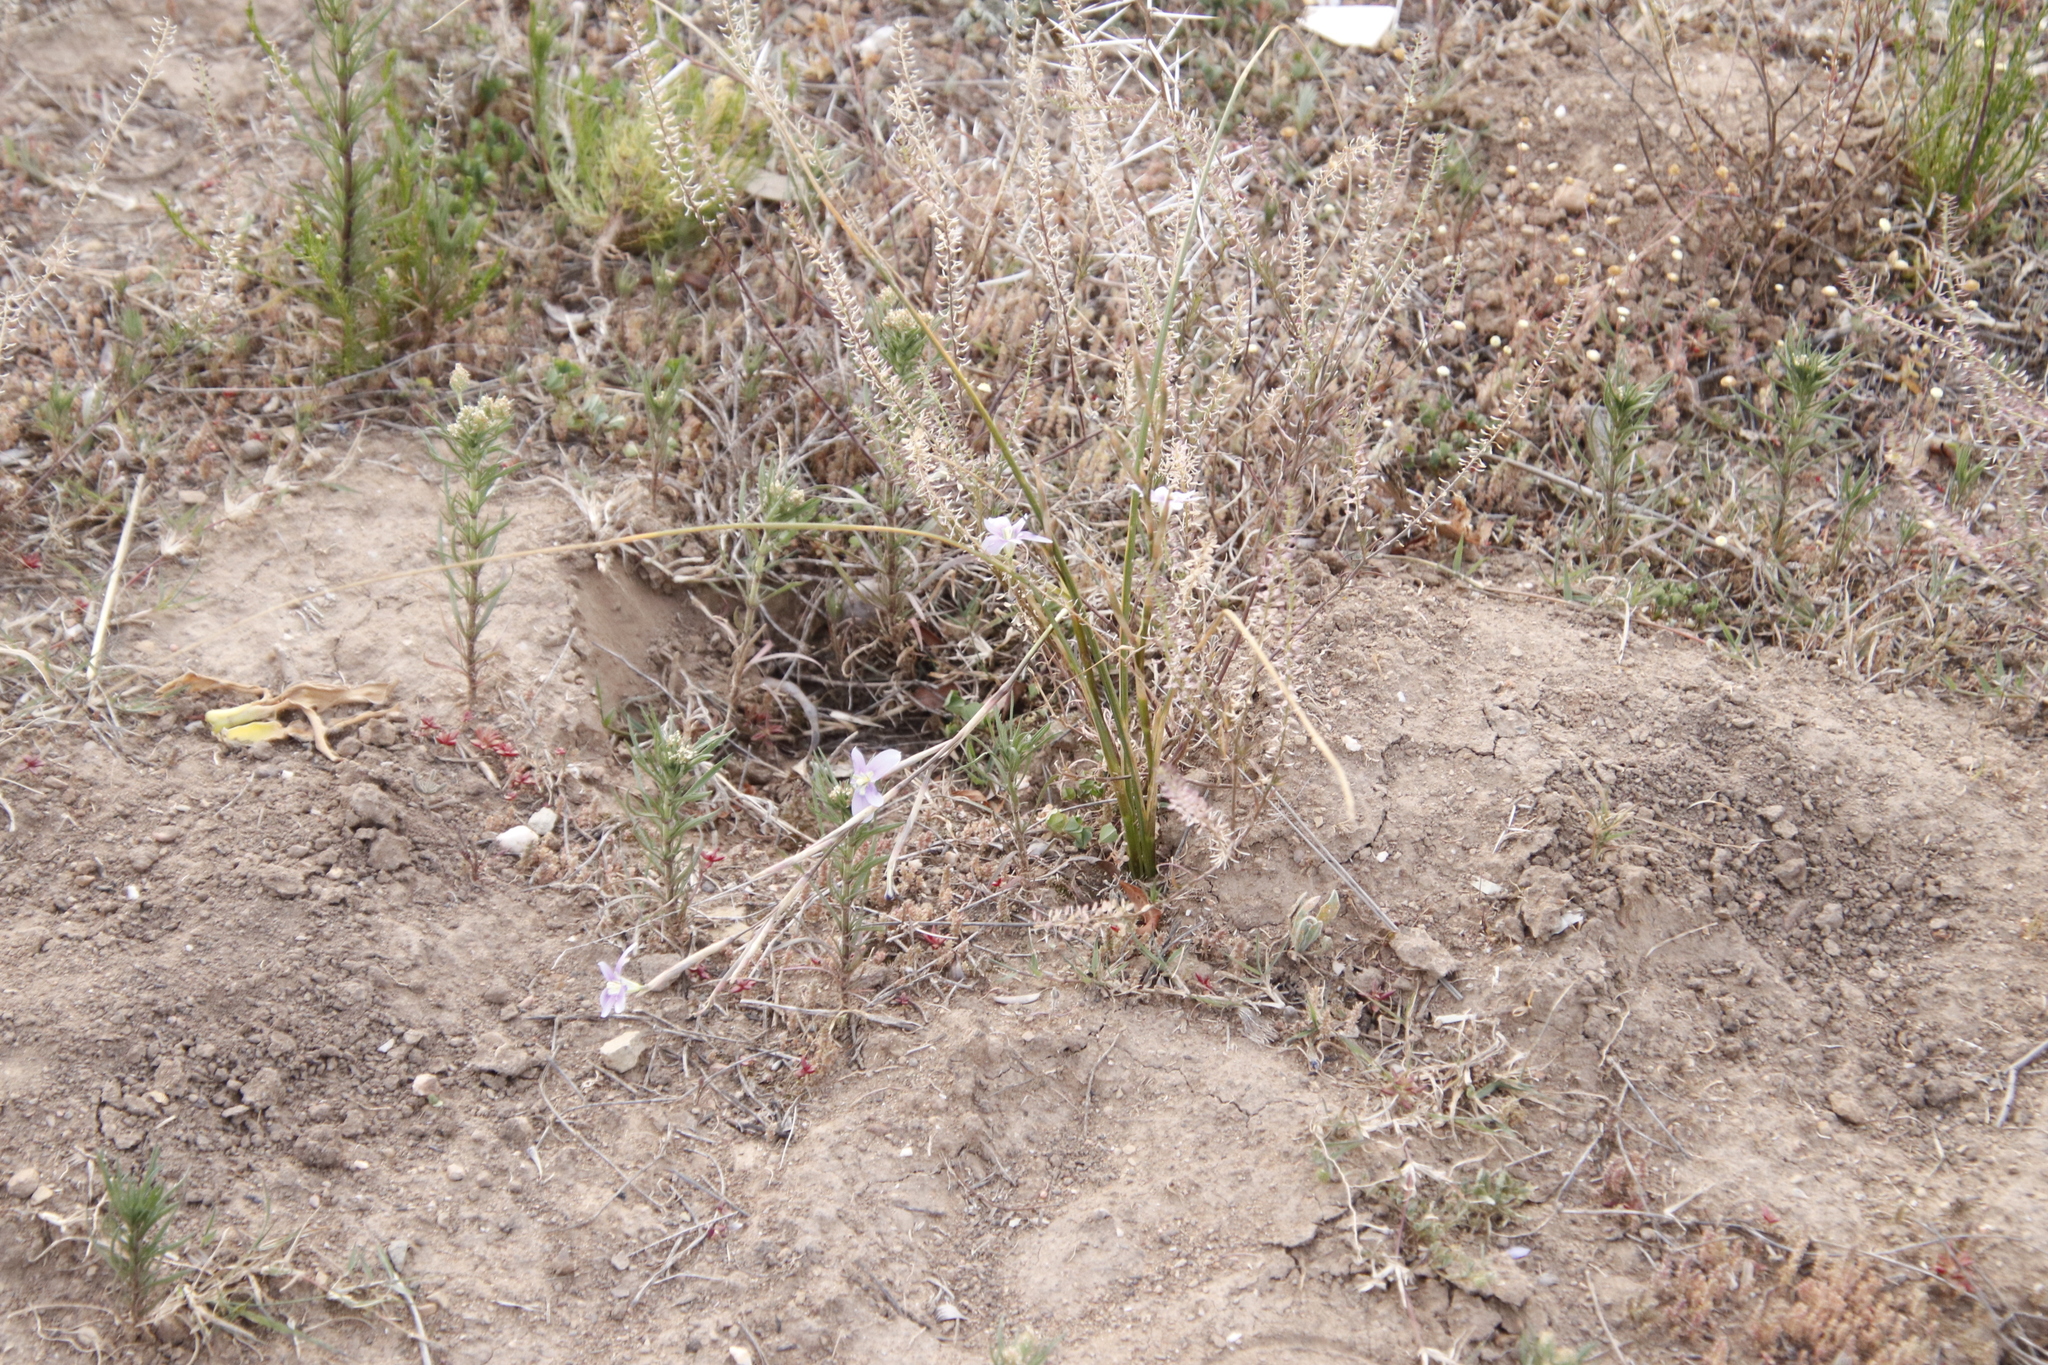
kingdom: Plantae
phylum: Tracheophyta
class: Liliopsida
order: Asparagales
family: Iridaceae
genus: Moraea
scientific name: Moraea polyanthos
